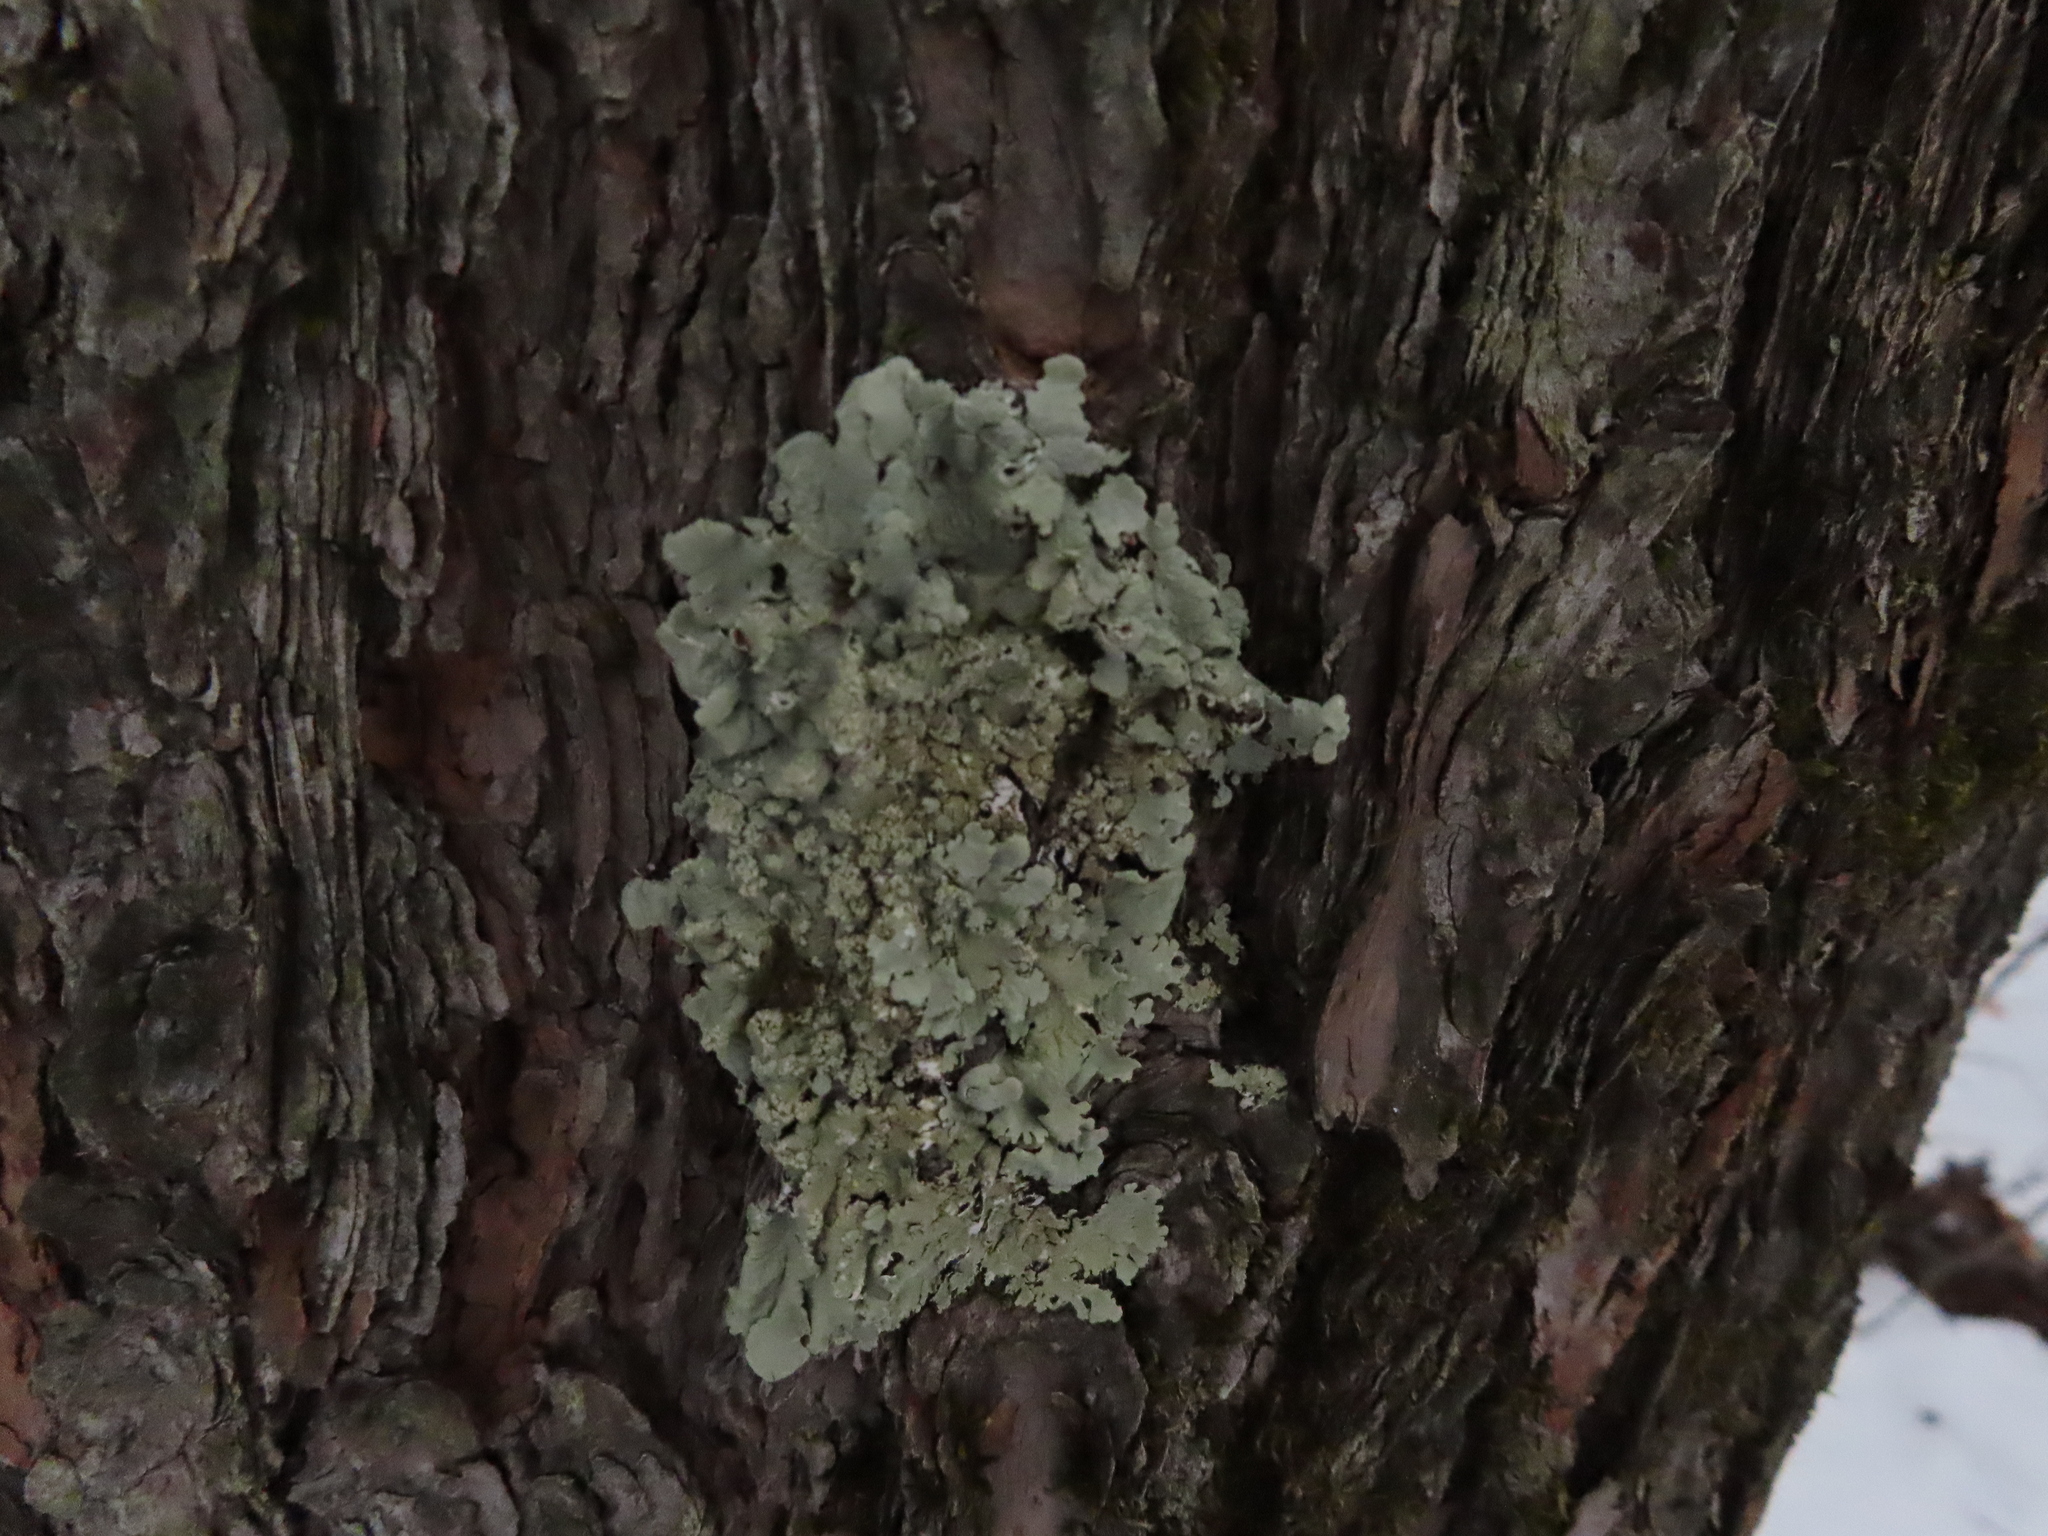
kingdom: Fungi
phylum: Ascomycota
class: Lecanoromycetes
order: Lecanorales
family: Parmeliaceae
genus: Flavoparmelia
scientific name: Flavoparmelia caperata
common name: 40-mile per hour lichen
